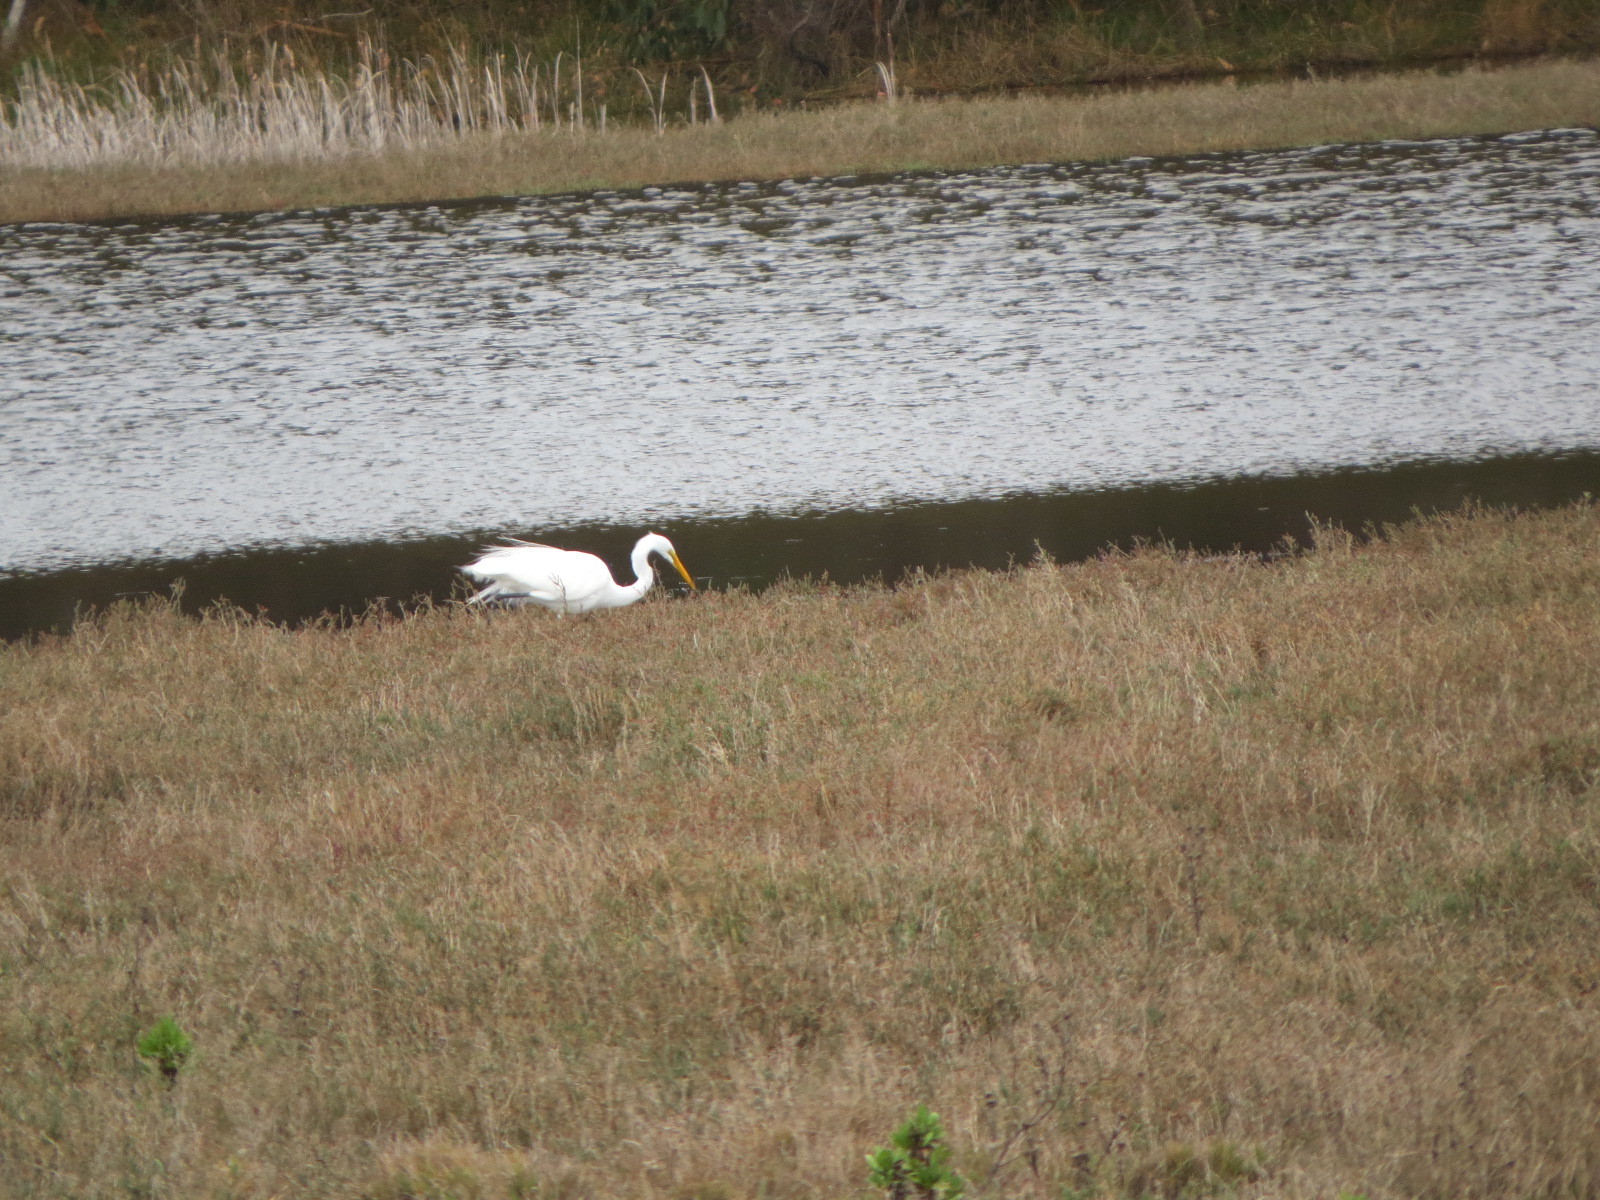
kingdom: Animalia
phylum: Chordata
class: Aves
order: Pelecaniformes
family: Ardeidae
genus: Ardea
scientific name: Ardea alba
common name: Great egret
